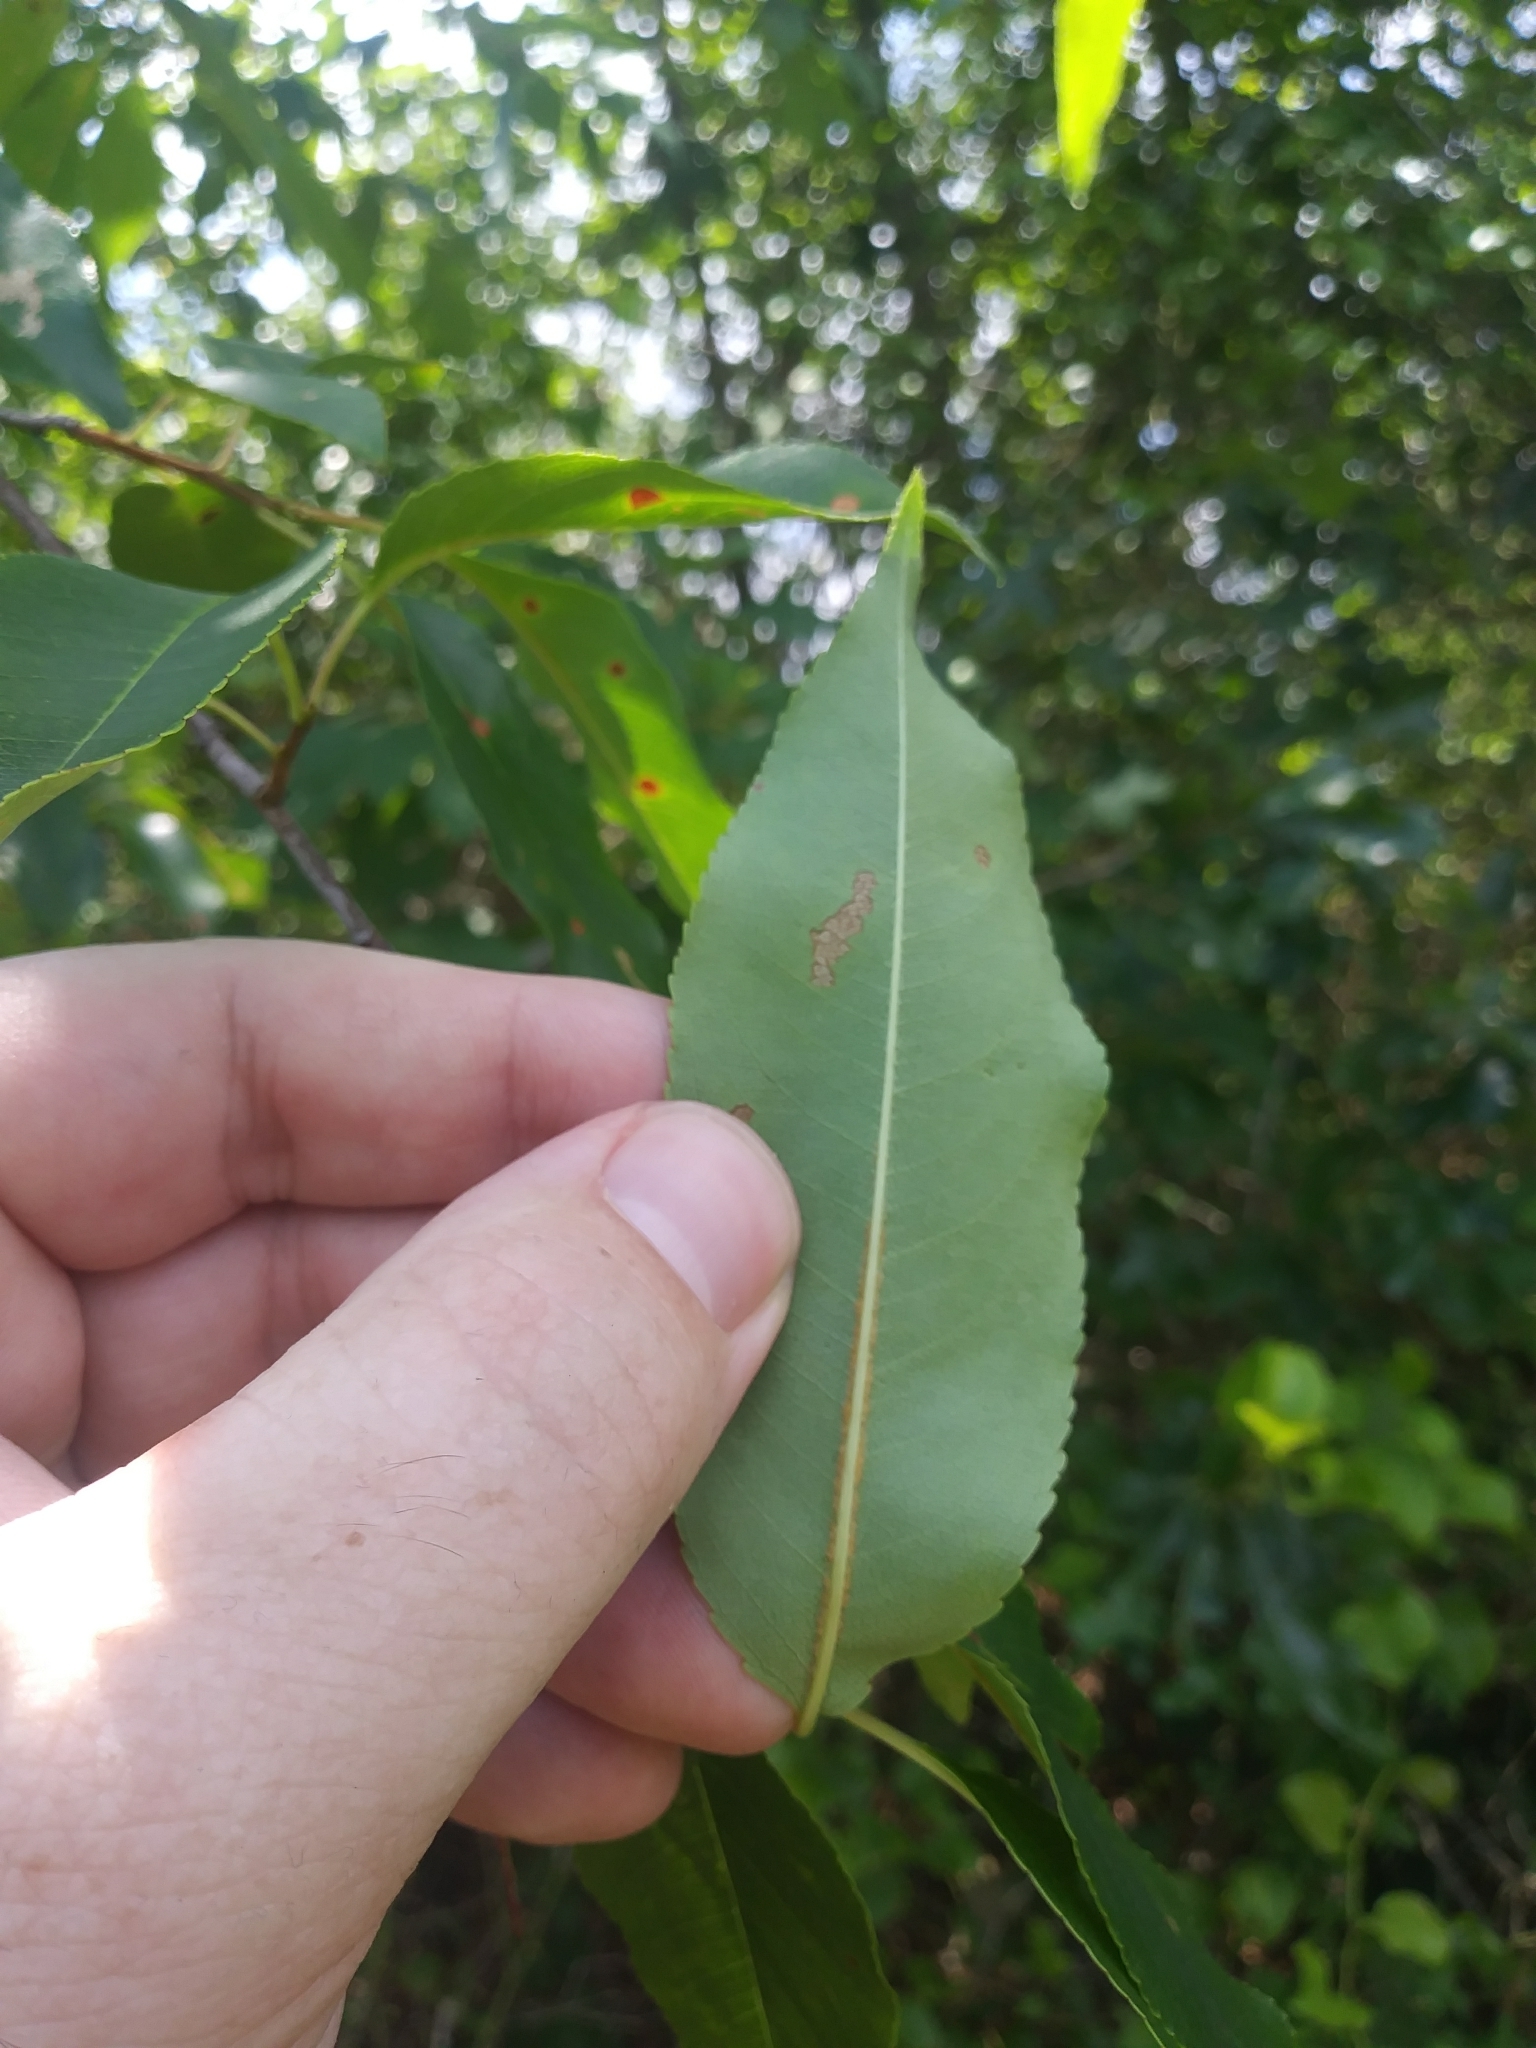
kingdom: Plantae
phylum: Tracheophyta
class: Magnoliopsida
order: Rosales
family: Rosaceae
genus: Prunus
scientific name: Prunus serotina
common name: Black cherry
